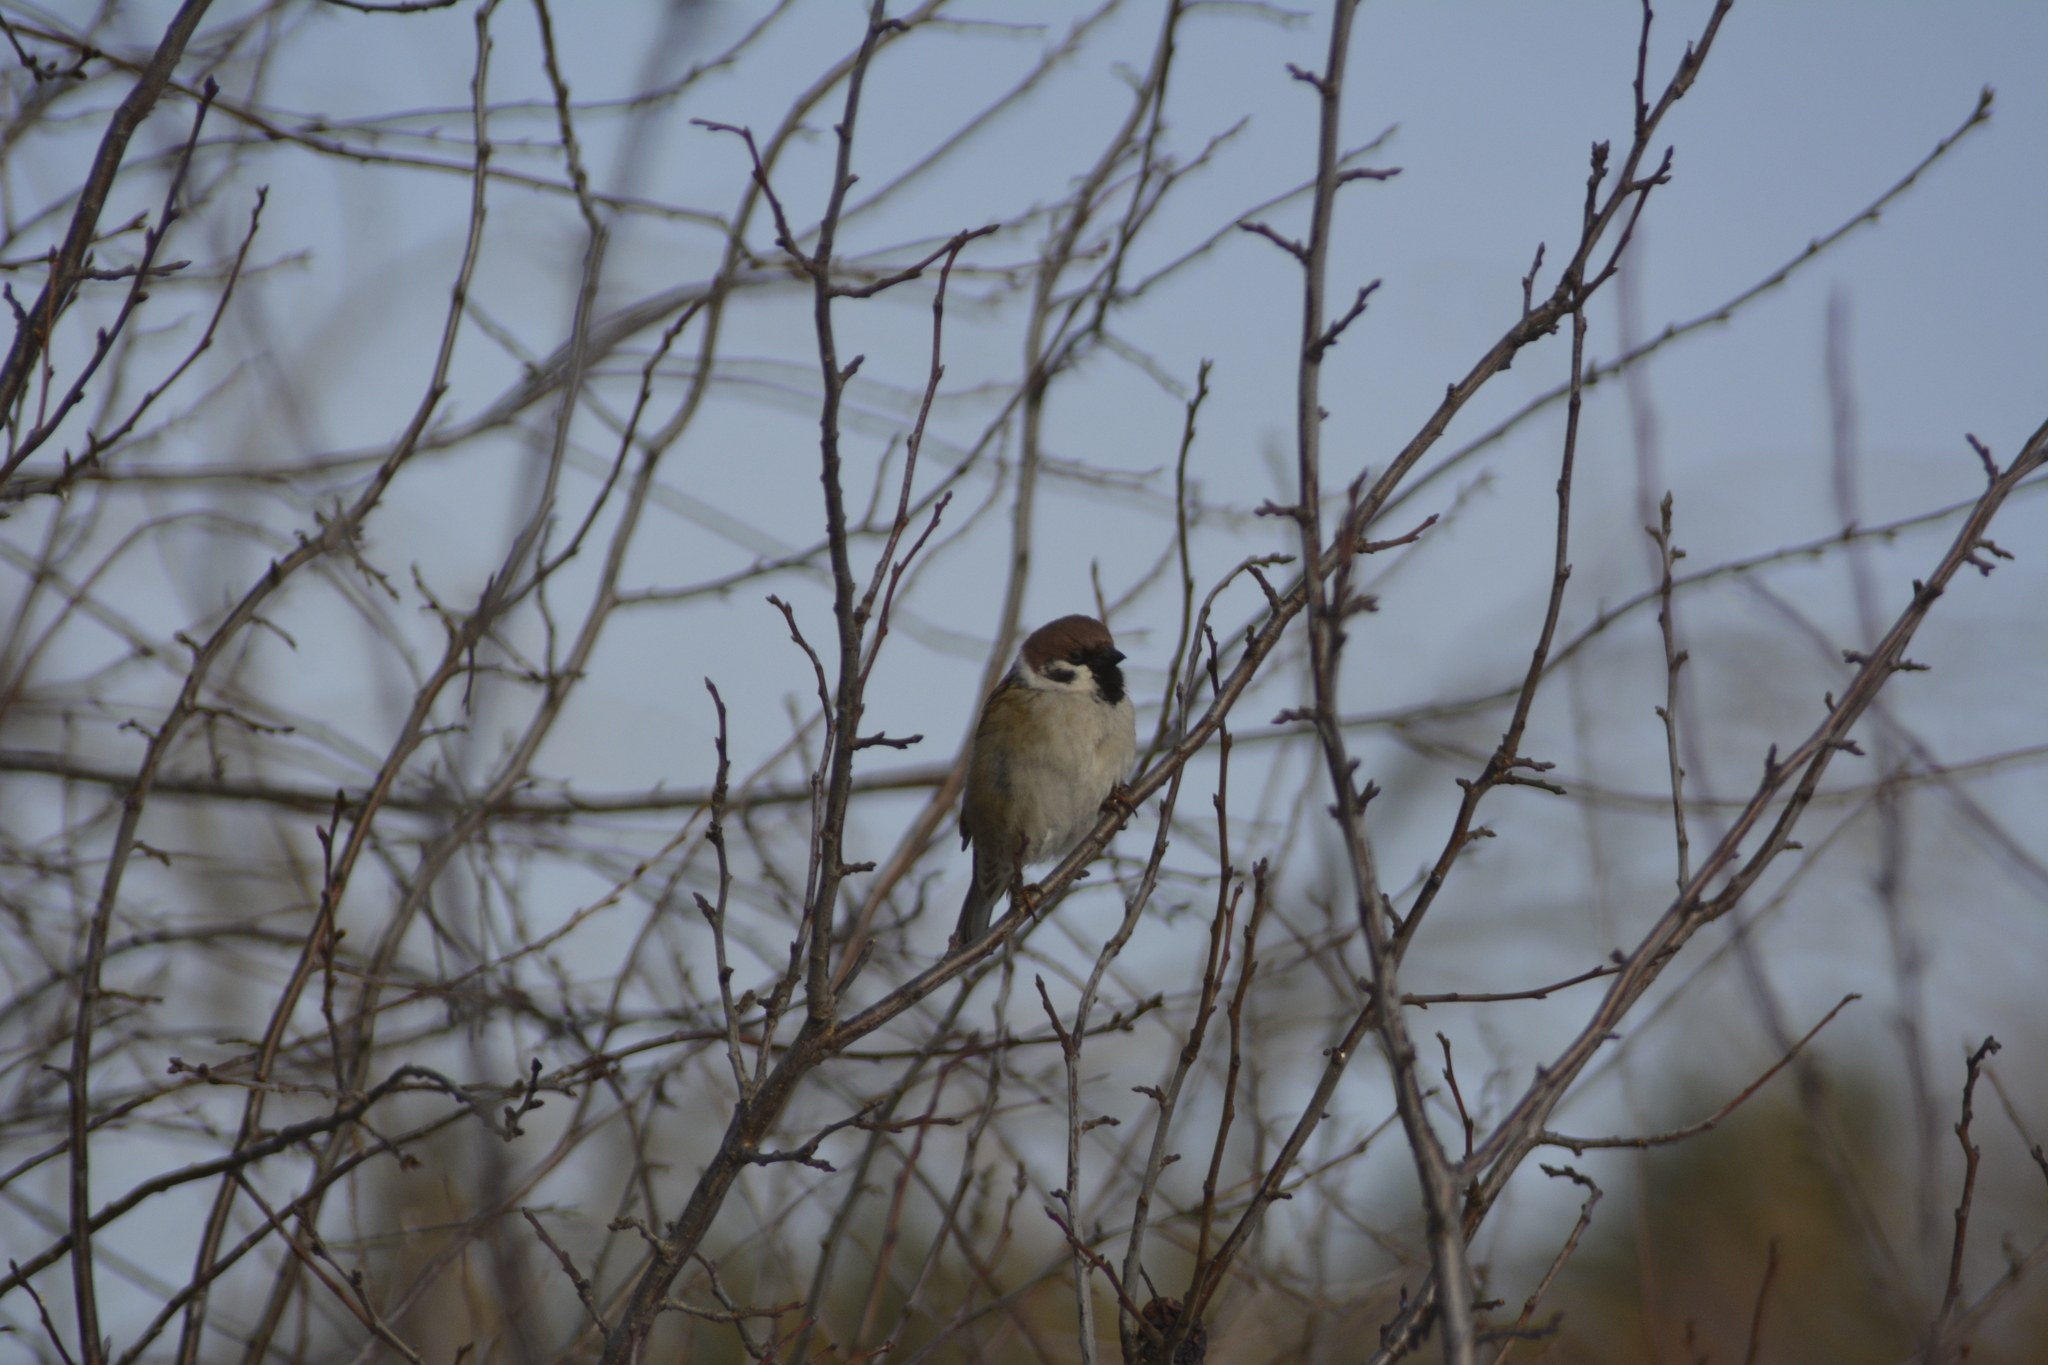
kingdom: Animalia
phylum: Chordata
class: Aves
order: Passeriformes
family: Passeridae
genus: Passer
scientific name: Passer montanus
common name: Eurasian tree sparrow
